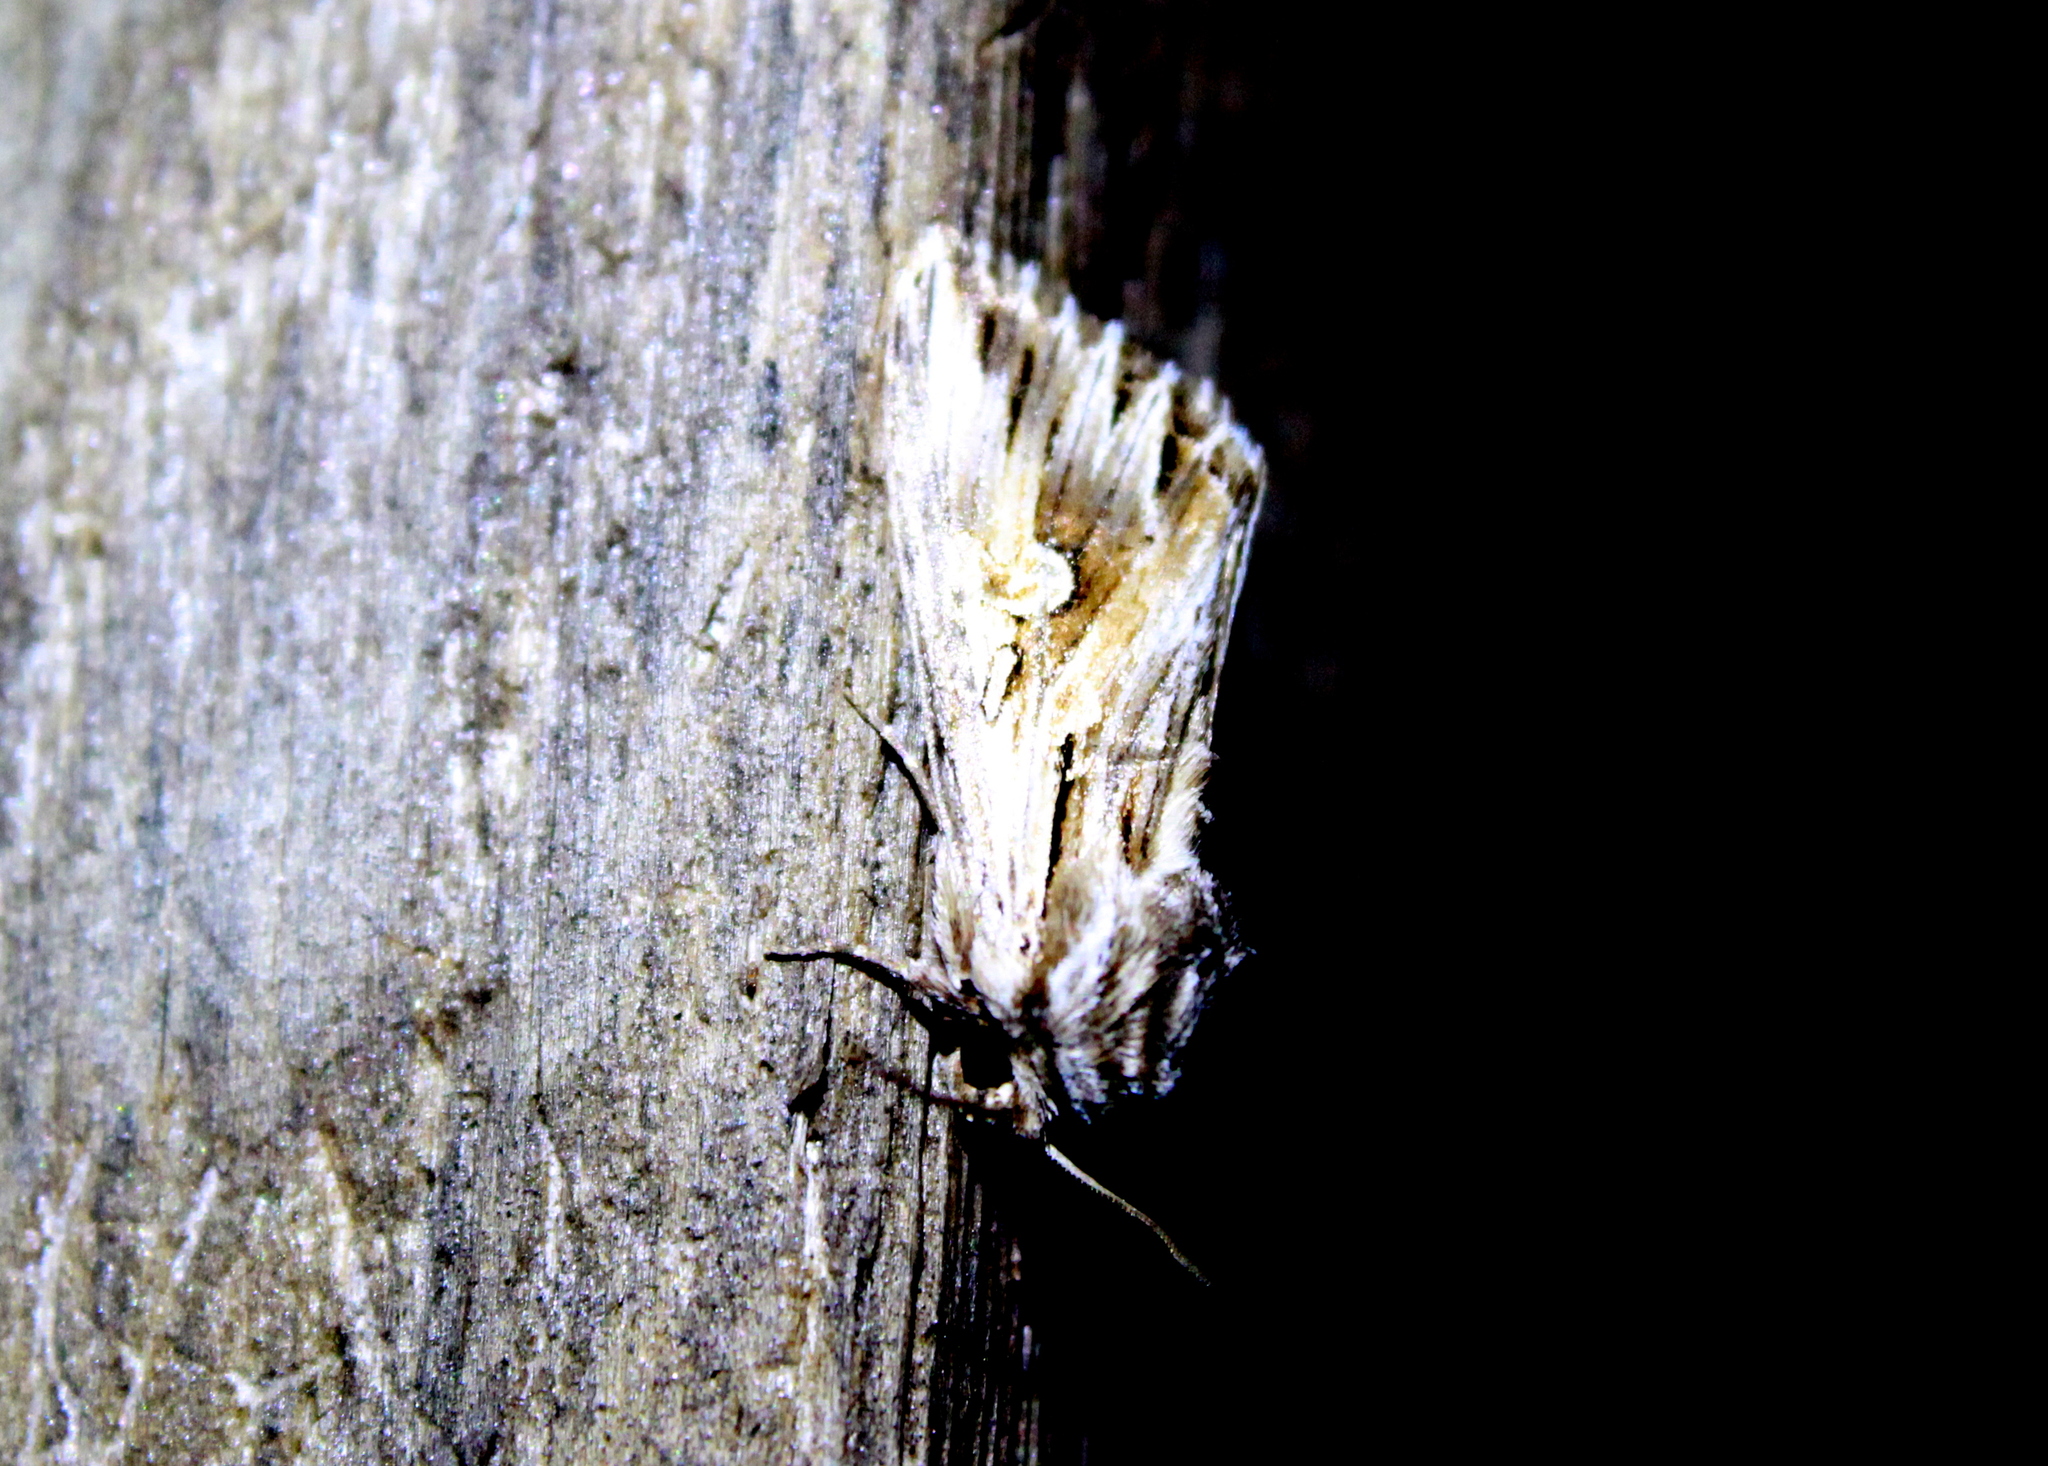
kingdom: Animalia
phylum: Arthropoda
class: Insecta
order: Lepidoptera
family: Noctuidae
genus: Nedra
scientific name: Nedra ramosula
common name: Gray half-spot
